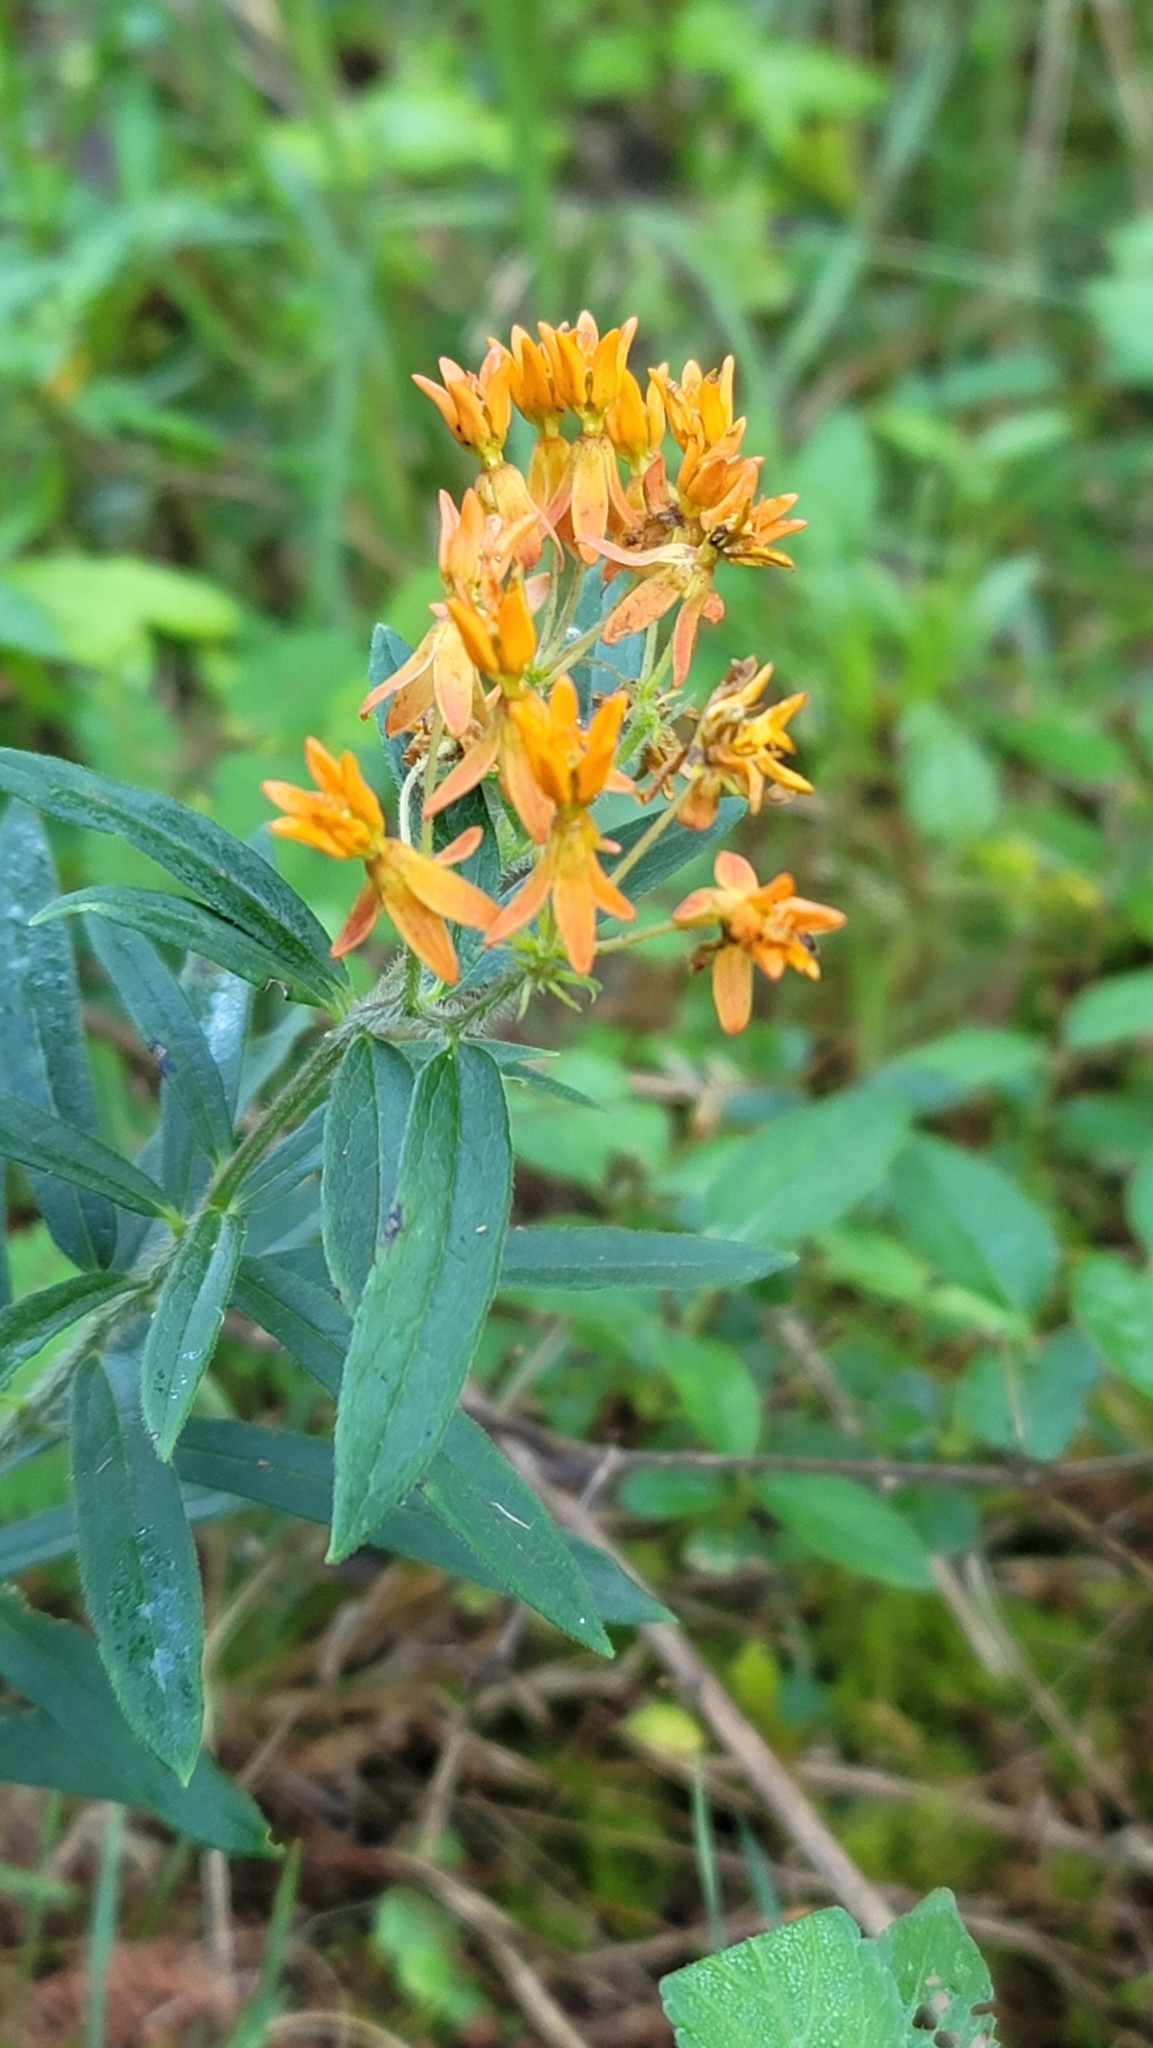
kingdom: Plantae
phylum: Tracheophyta
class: Magnoliopsida
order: Gentianales
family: Apocynaceae
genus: Asclepias
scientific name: Asclepias tuberosa
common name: Butterfly milkweed
